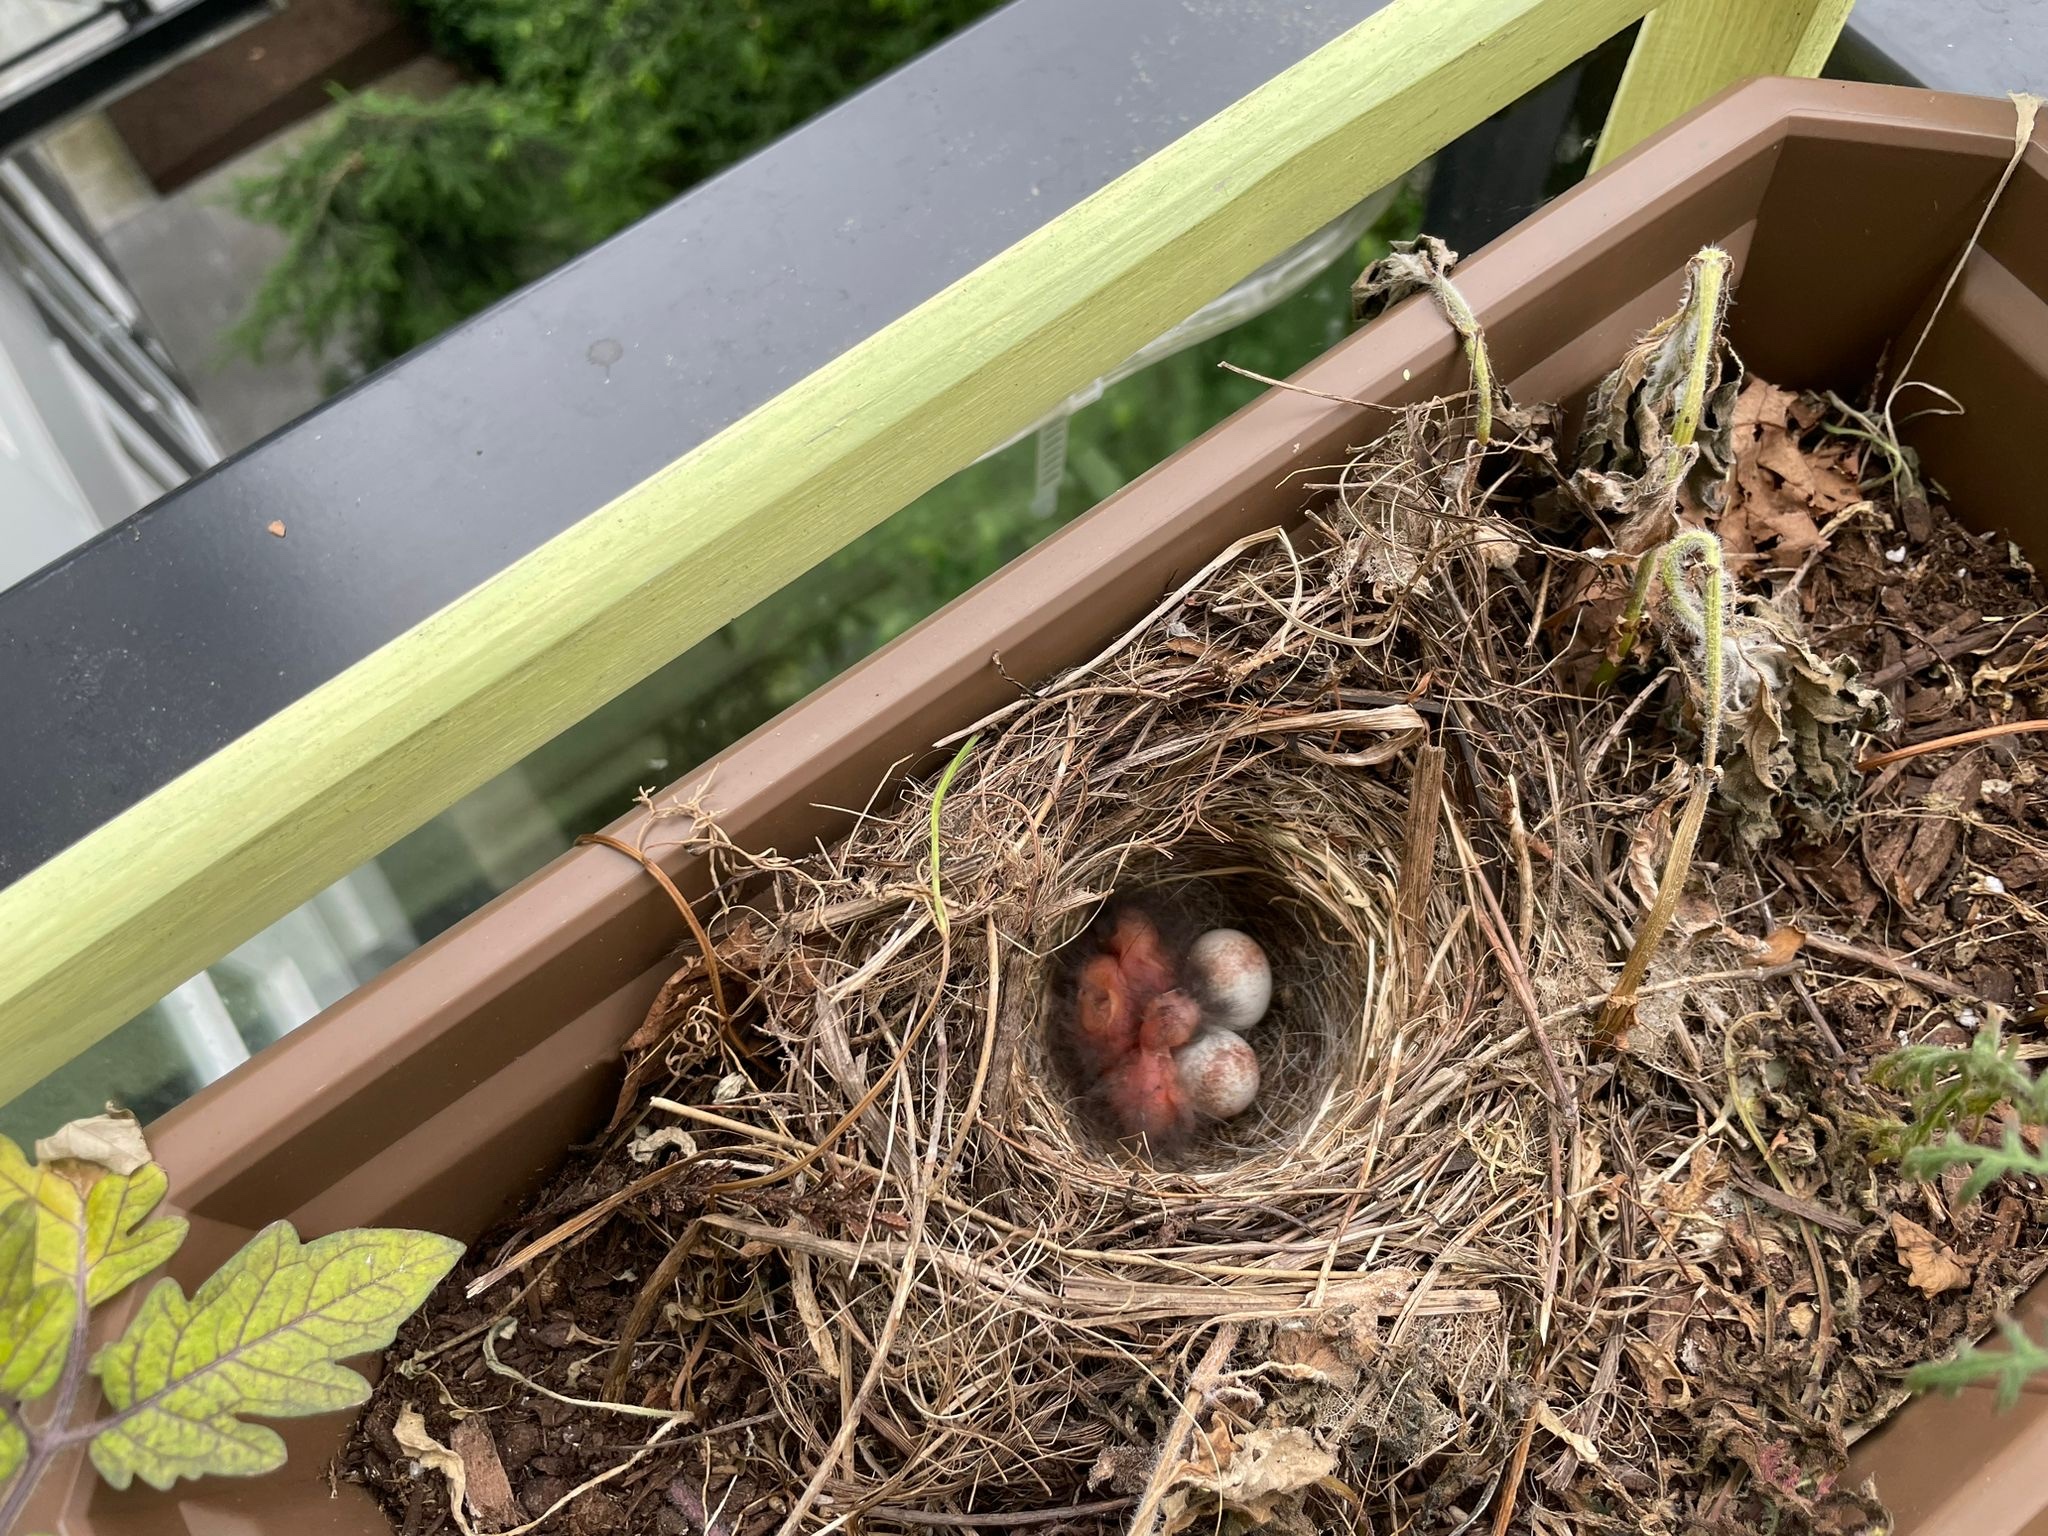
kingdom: Animalia
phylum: Chordata
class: Aves
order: Passeriformes
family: Passerellidae
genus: Junco
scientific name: Junco hyemalis
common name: Dark-eyed junco
